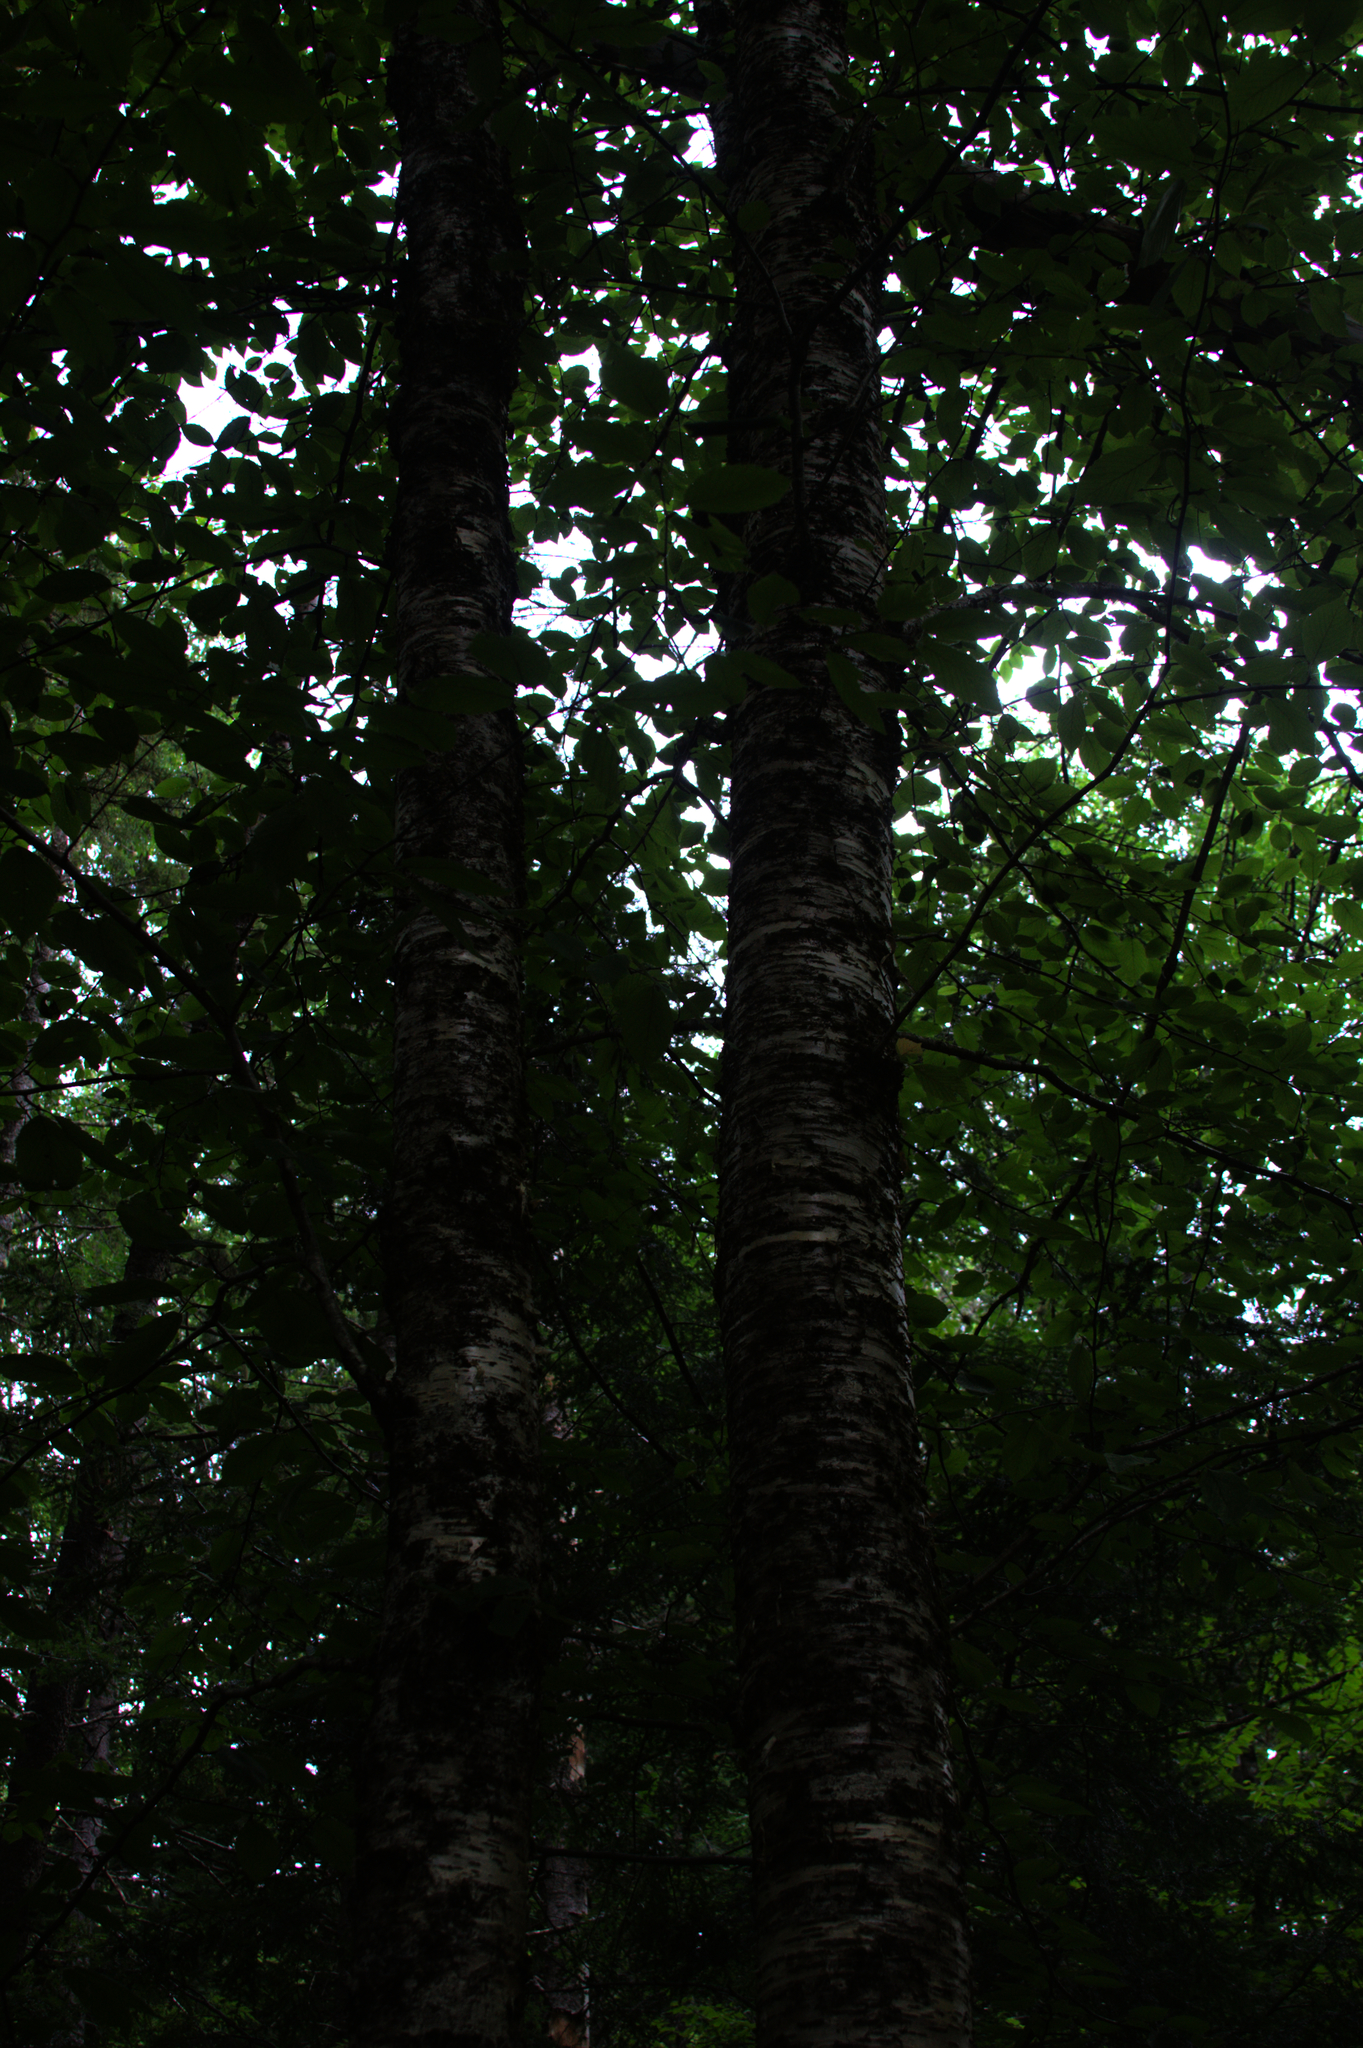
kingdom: Plantae
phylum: Tracheophyta
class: Magnoliopsida
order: Fagales
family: Betulaceae
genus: Betula
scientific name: Betula alleghaniensis
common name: Yellow birch
